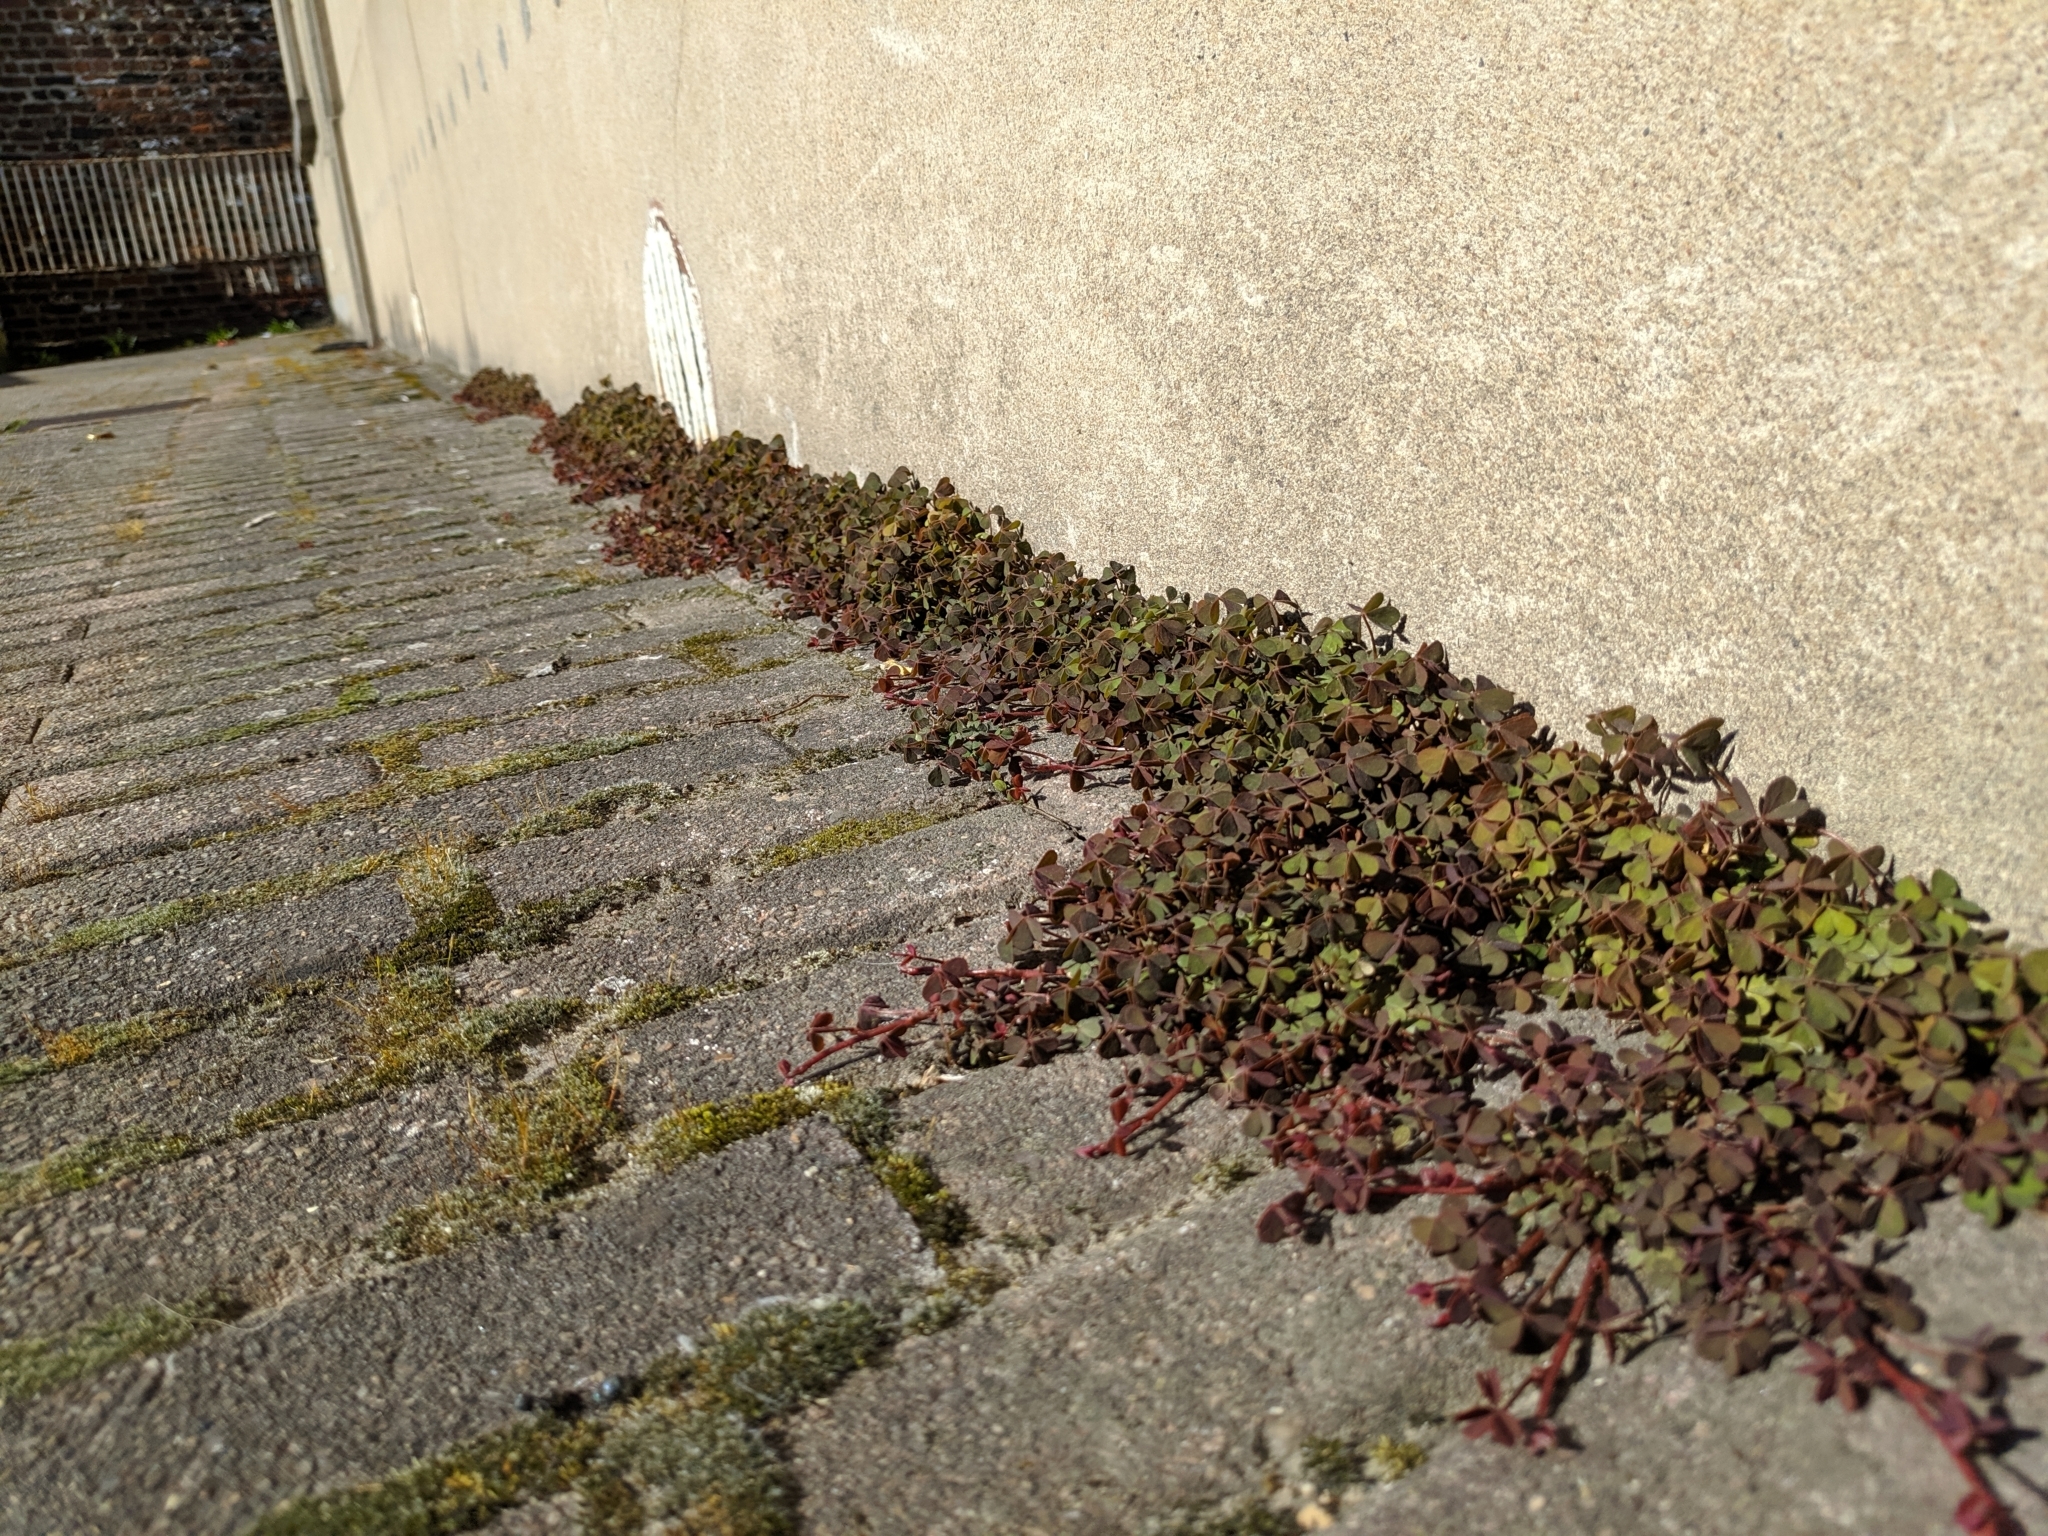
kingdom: Plantae
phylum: Tracheophyta
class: Magnoliopsida
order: Oxalidales
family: Oxalidaceae
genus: Oxalis
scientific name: Oxalis corniculata
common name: Procumbent yellow-sorrel
